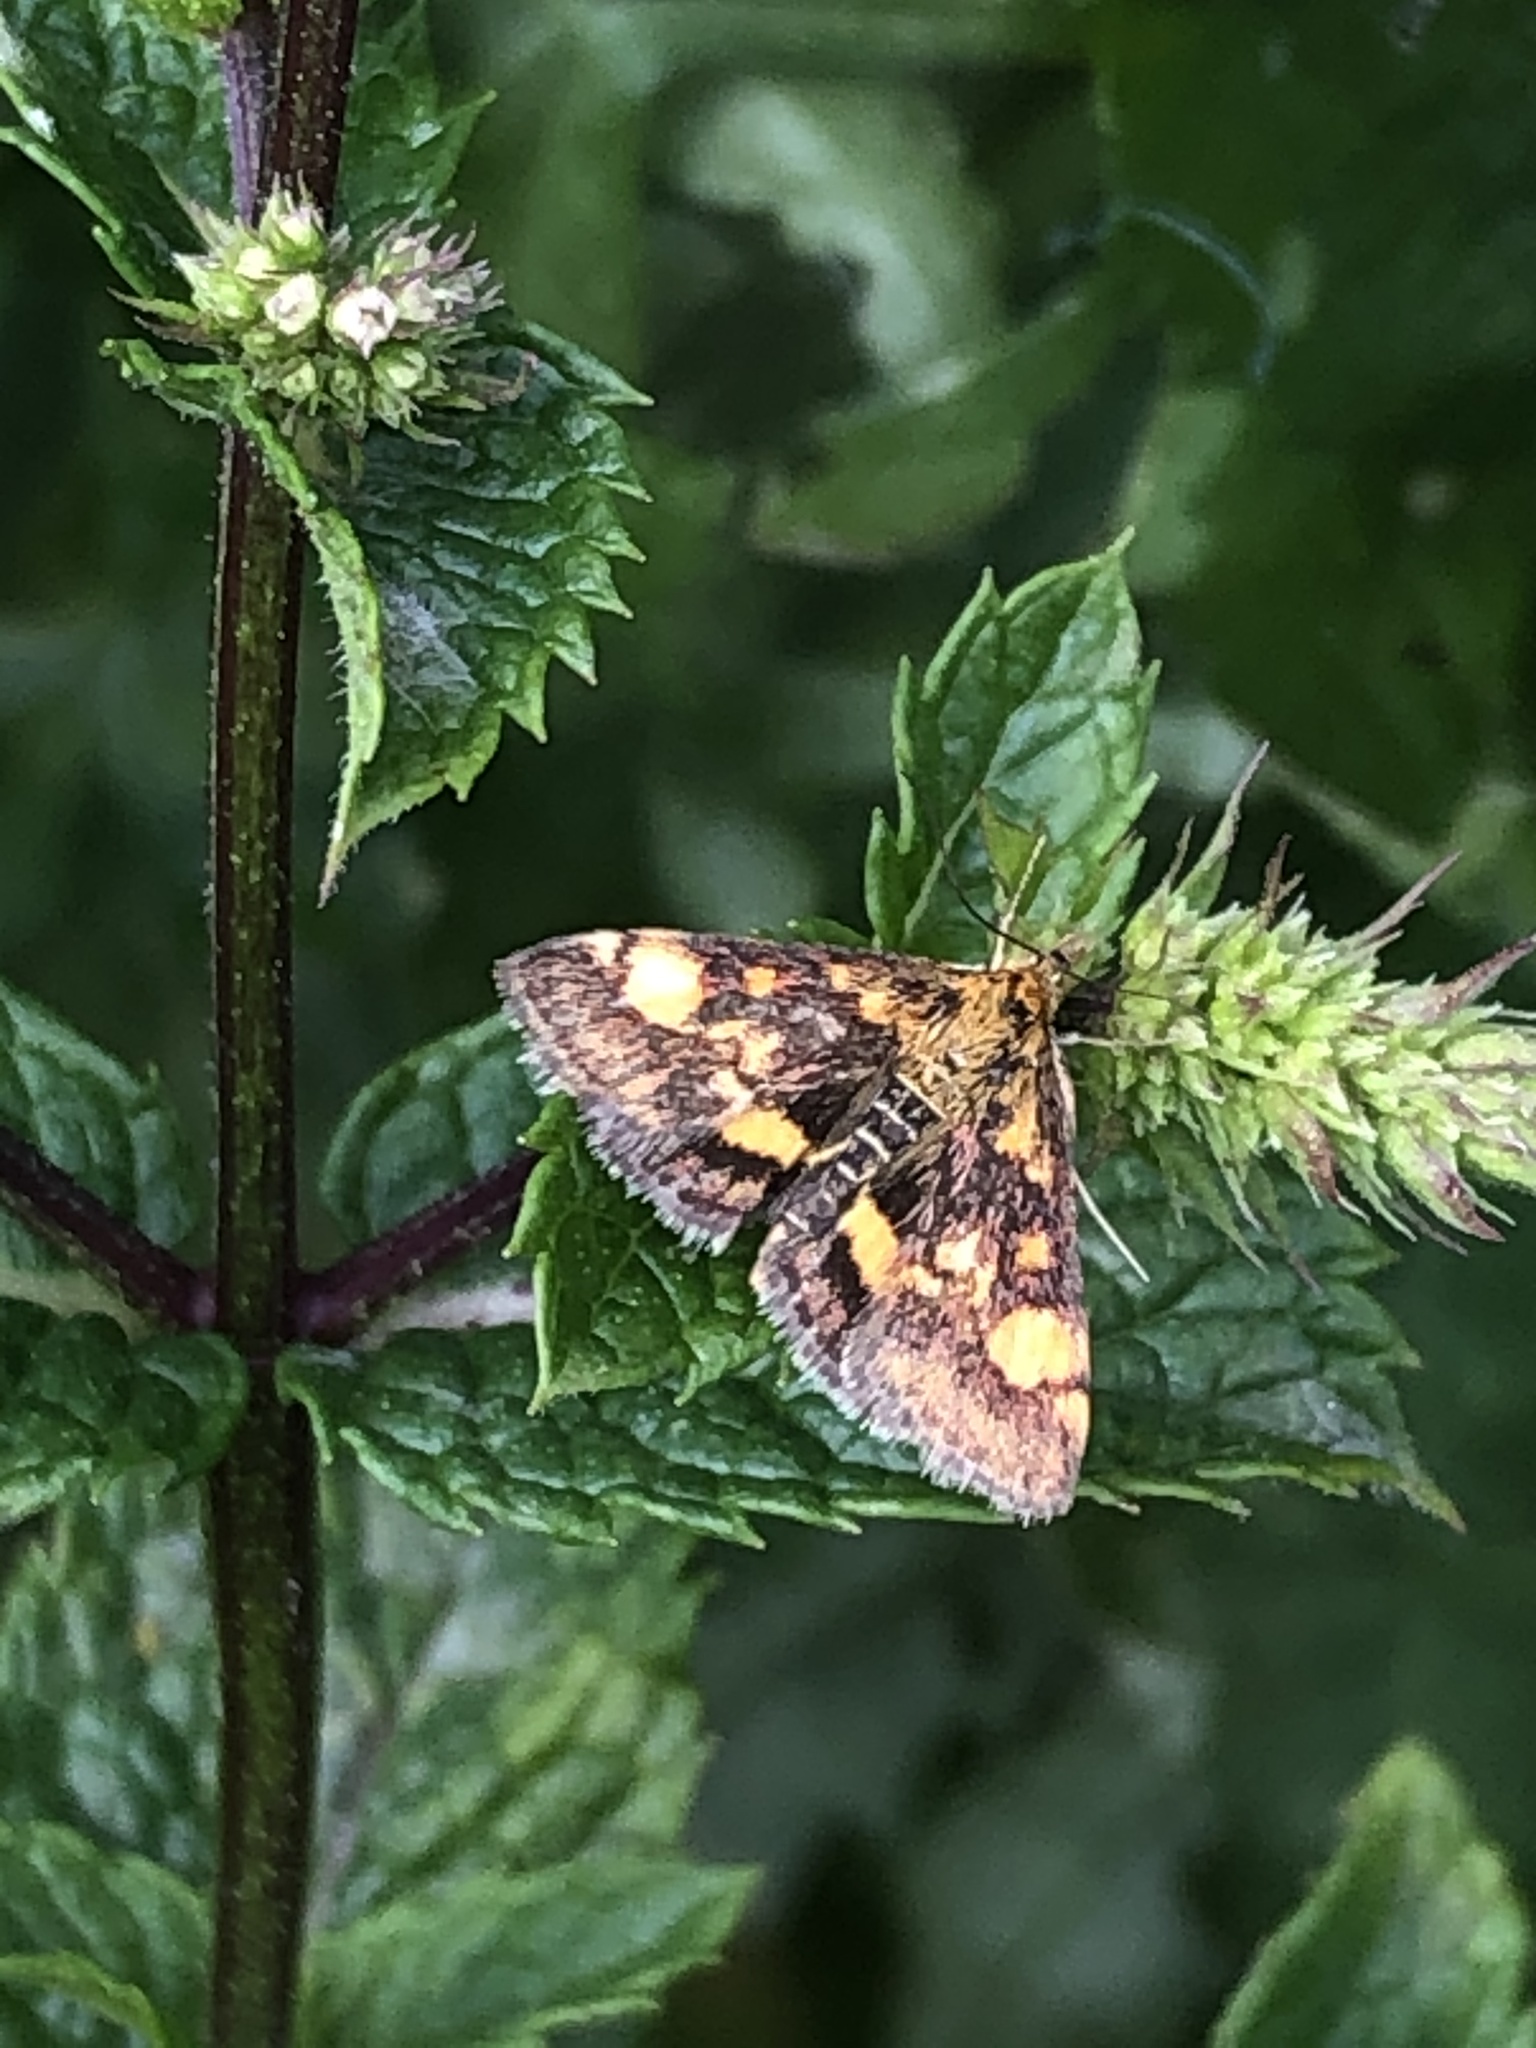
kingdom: Animalia
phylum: Arthropoda
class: Insecta
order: Lepidoptera
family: Crambidae
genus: Pyrausta
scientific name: Pyrausta aurata
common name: Small purple & gold
